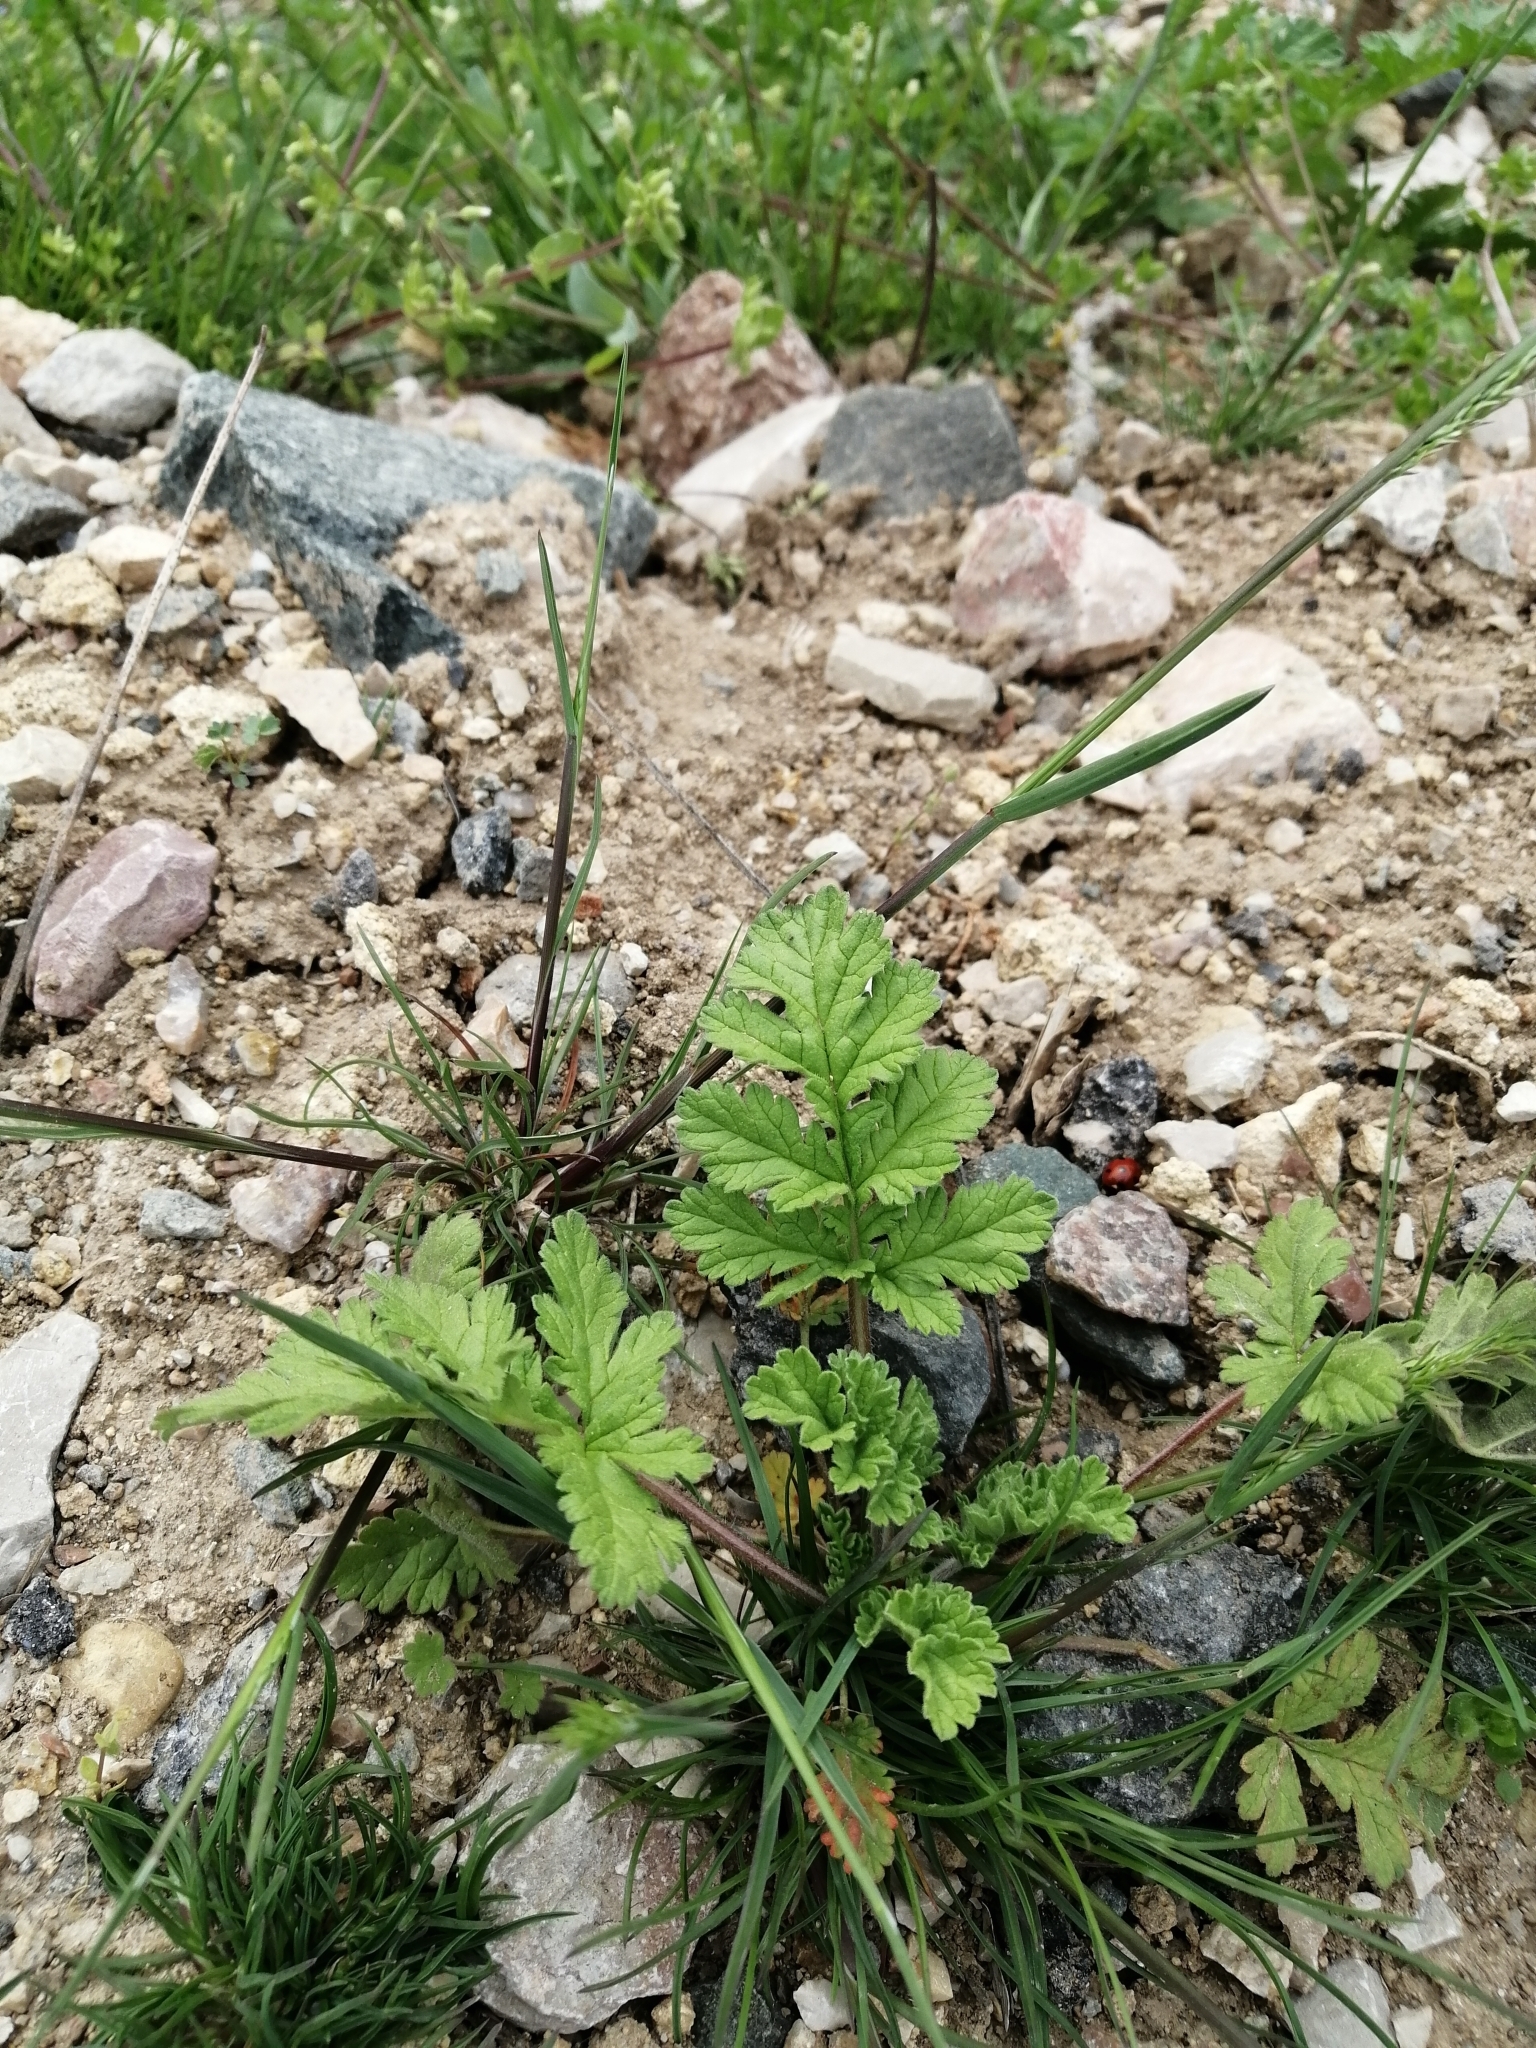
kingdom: Plantae
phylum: Tracheophyta
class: Magnoliopsida
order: Geraniales
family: Geraniaceae
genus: Erodium
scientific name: Erodium ciconium
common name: Common stork's bill
